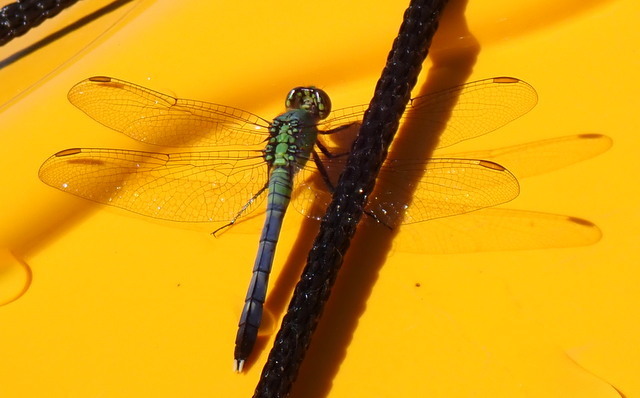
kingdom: Animalia
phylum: Arthropoda
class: Insecta
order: Odonata
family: Libellulidae
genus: Erythemis
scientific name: Erythemis simplicicollis
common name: Eastern pondhawk
